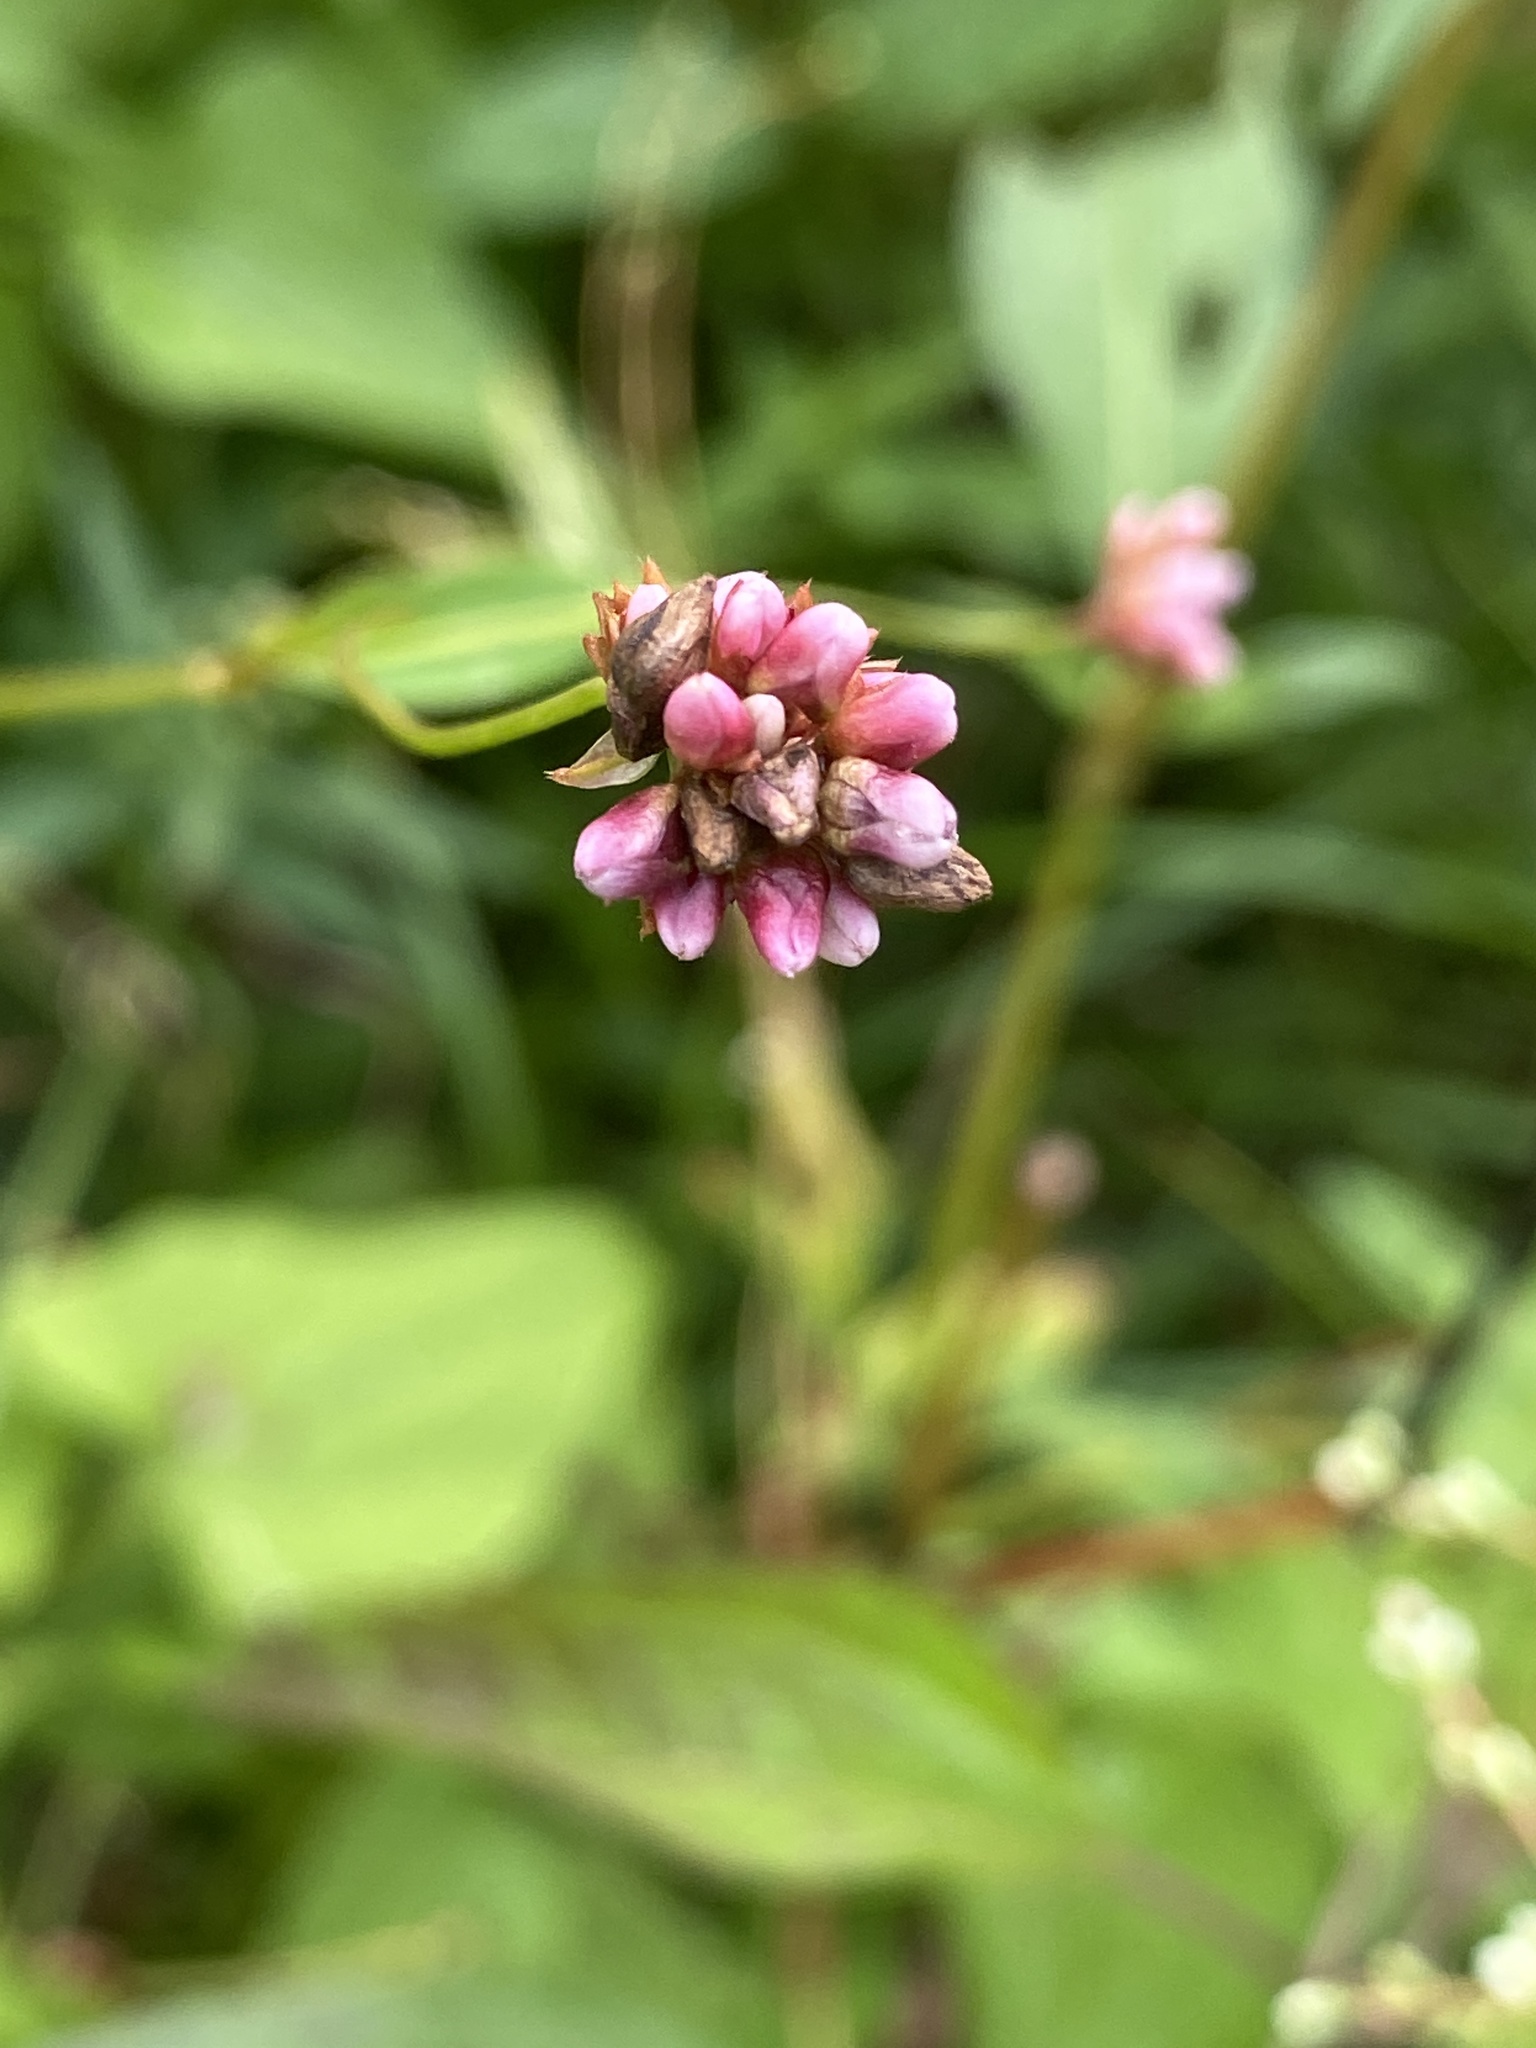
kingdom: Plantae
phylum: Tracheophyta
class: Magnoliopsida
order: Caryophyllales
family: Polygonaceae
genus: Persicaria
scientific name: Persicaria sagittata
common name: American tearthumb
